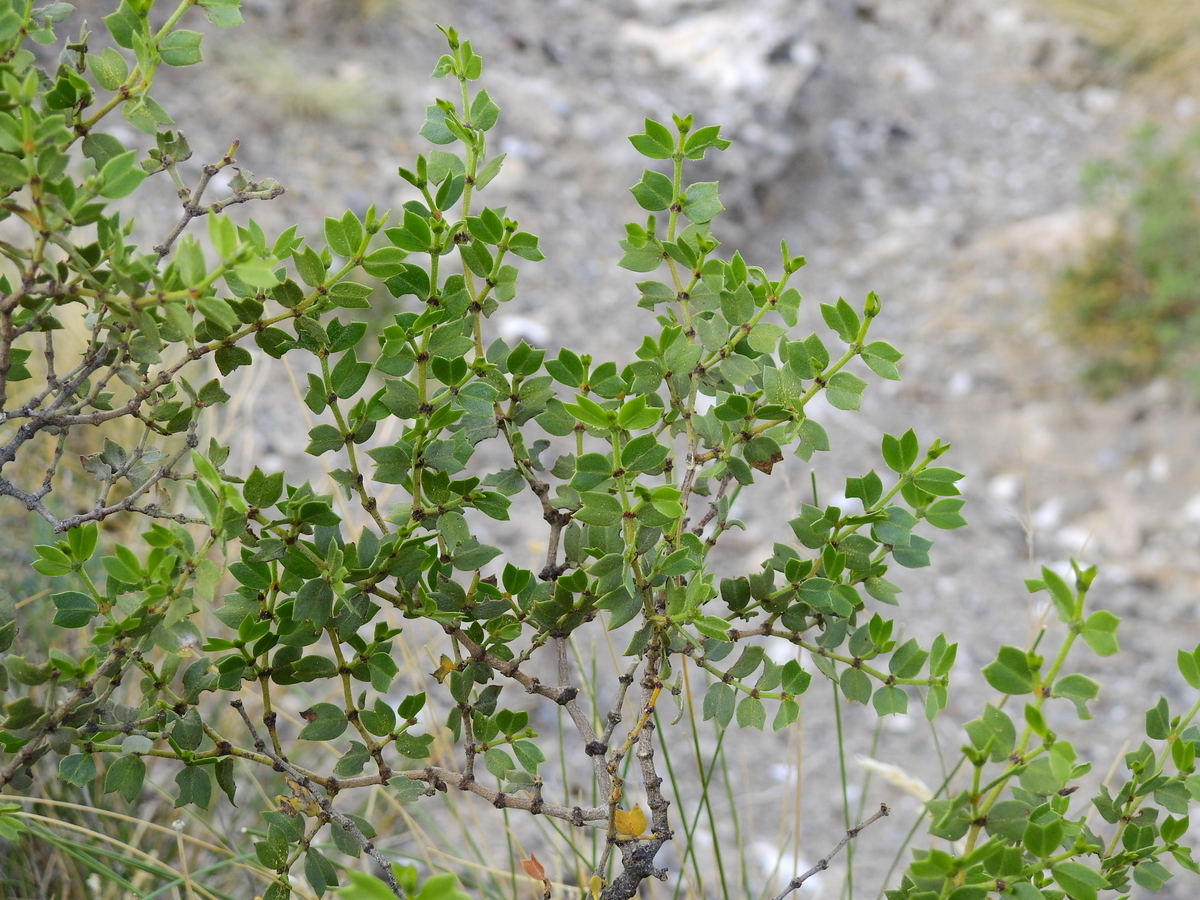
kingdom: Plantae
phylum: Tracheophyta
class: Magnoliopsida
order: Zygophyllales
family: Zygophyllaceae
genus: Larrea
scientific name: Larrea cuneifolia
